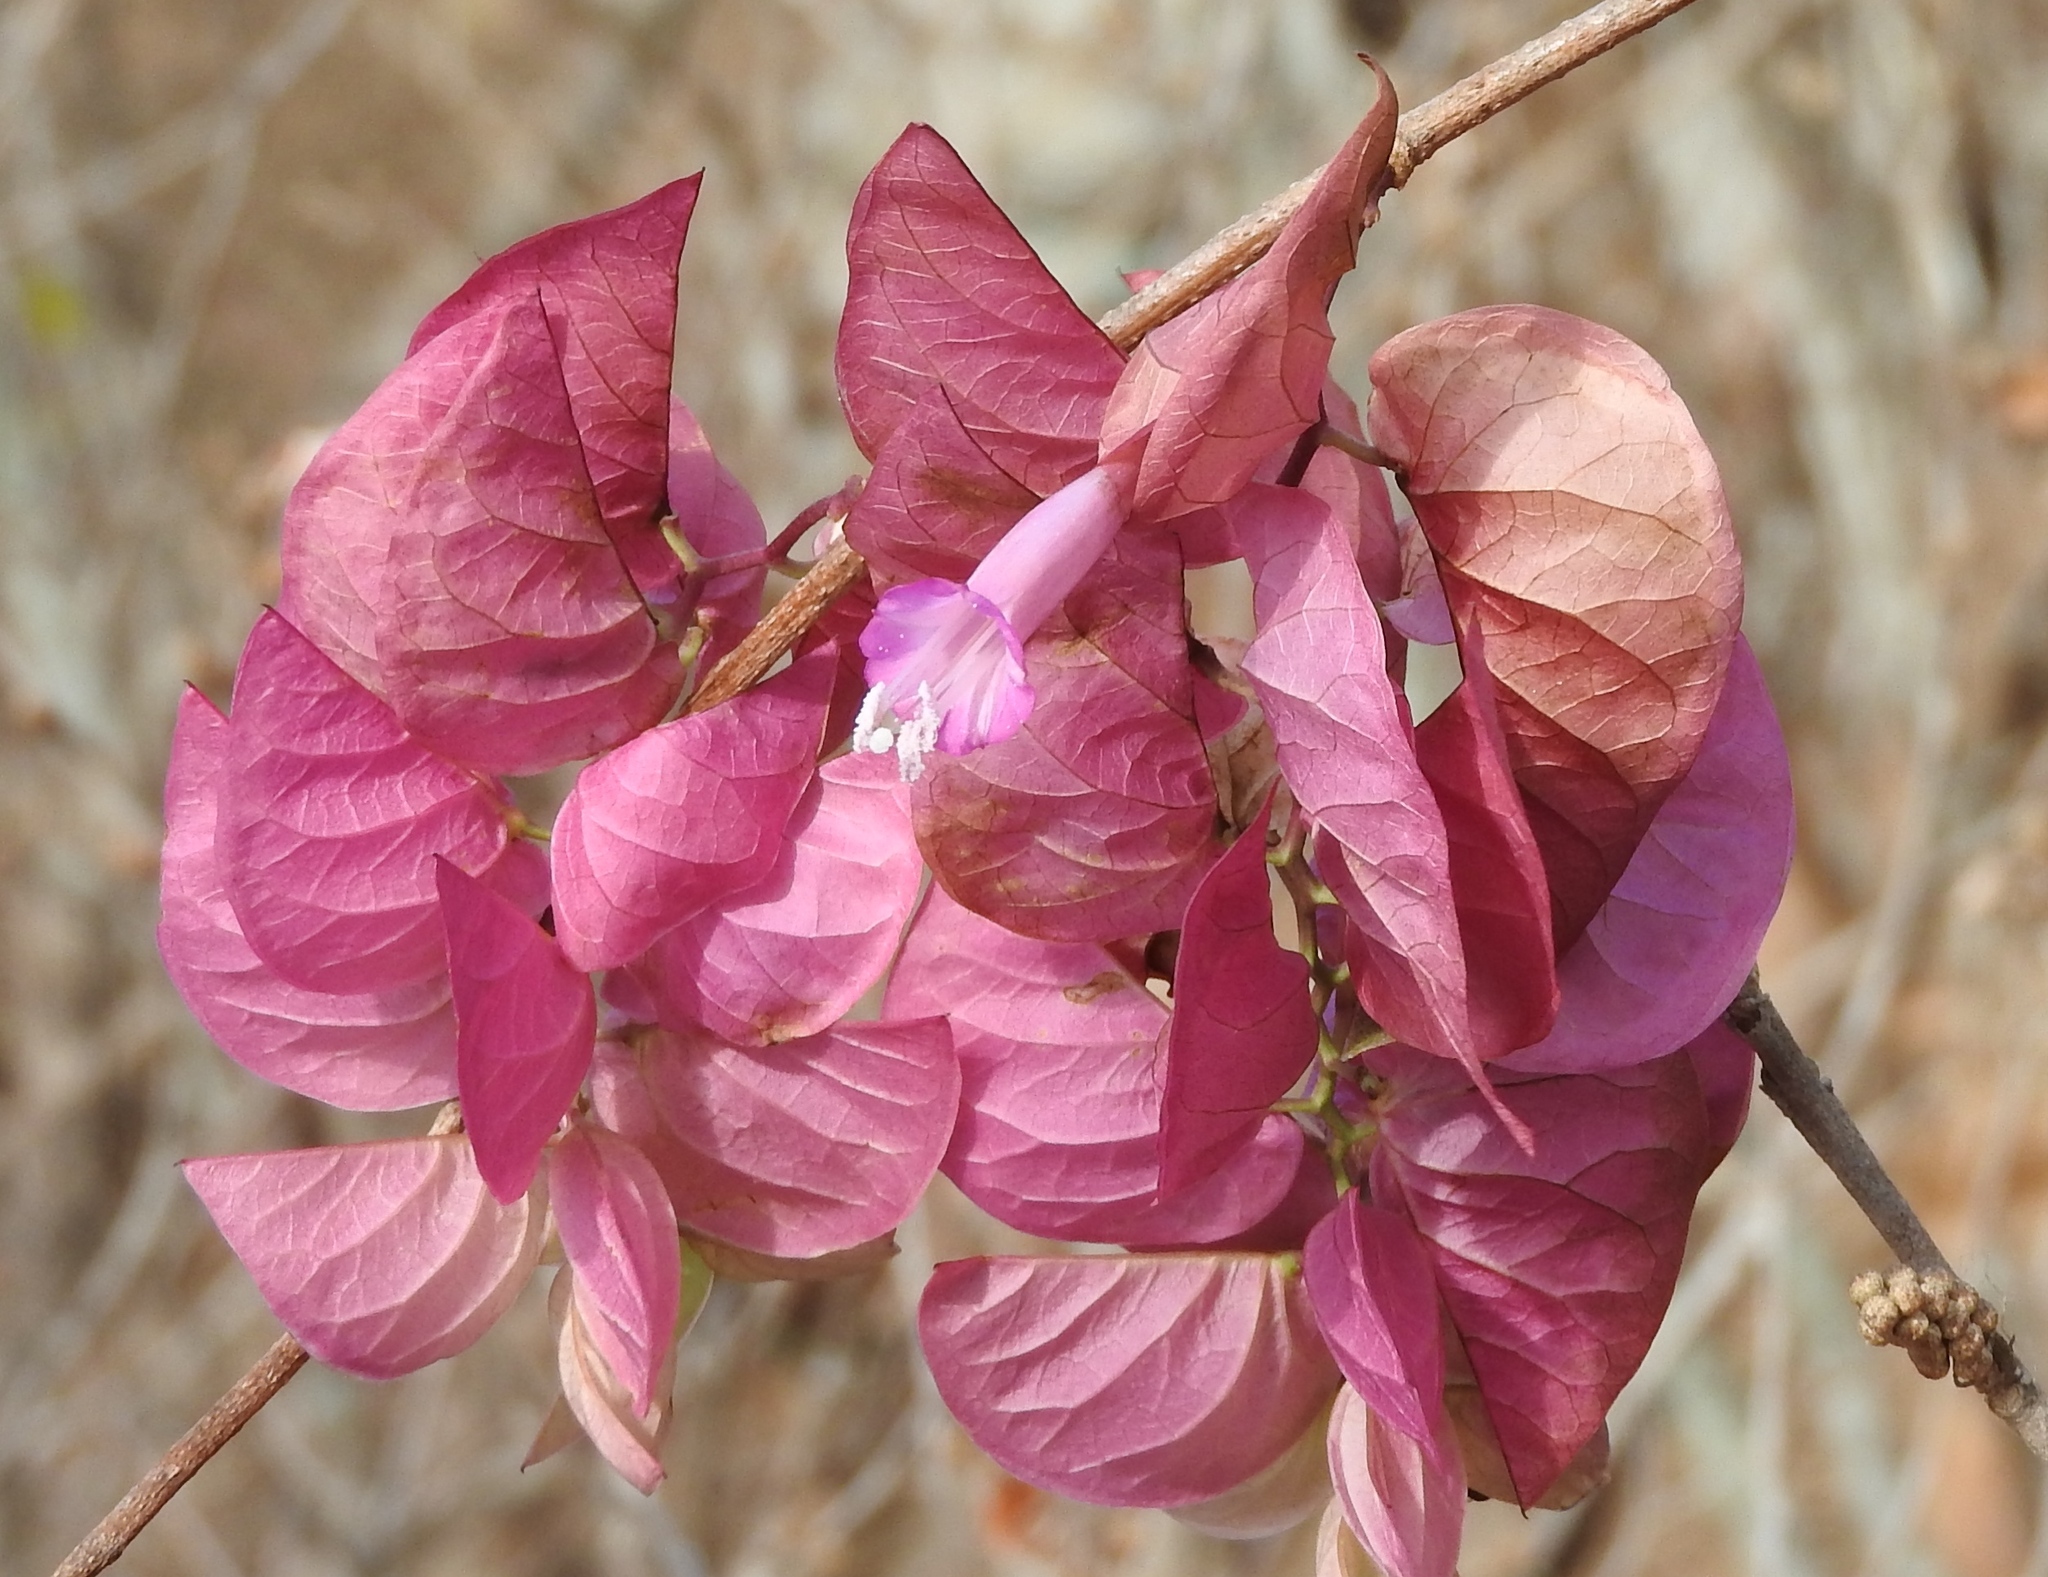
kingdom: Plantae
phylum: Tracheophyta
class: Magnoliopsida
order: Solanales
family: Convolvulaceae
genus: Ipomoea
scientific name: Ipomoea bracteata
